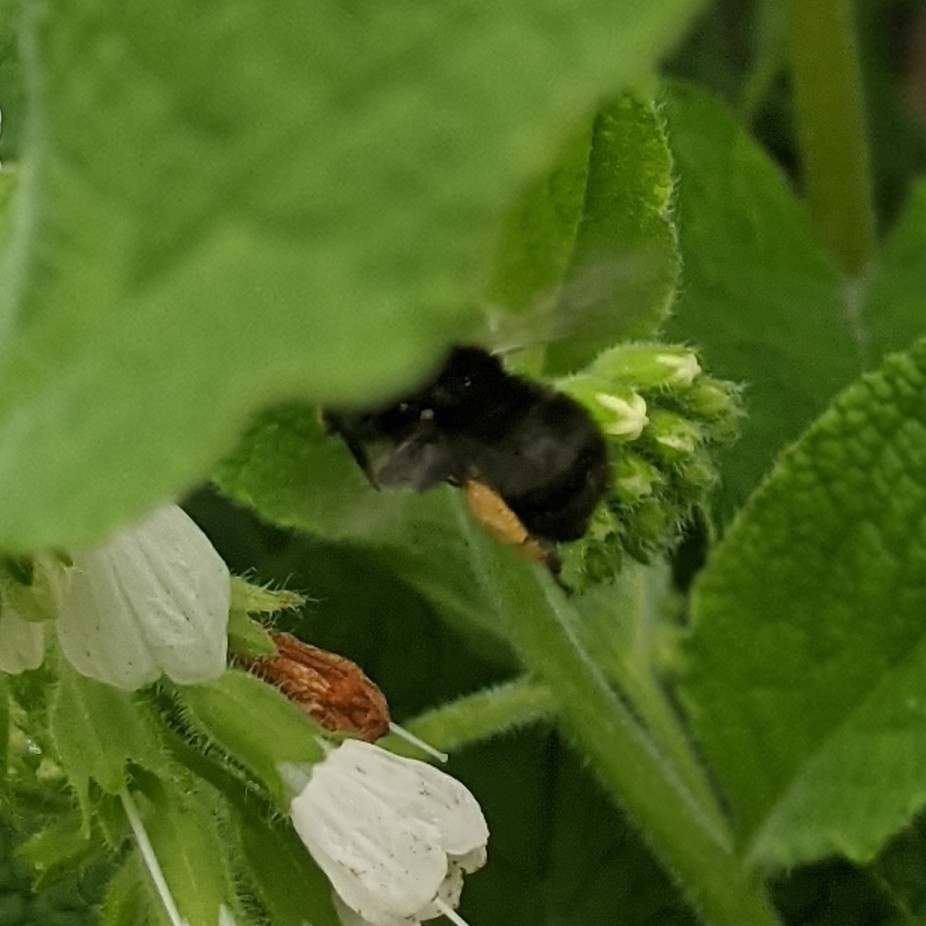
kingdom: Animalia
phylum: Arthropoda
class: Insecta
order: Hymenoptera
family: Apidae
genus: Anthophora
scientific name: Anthophora plumipes
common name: Hairy-footed flower bee
